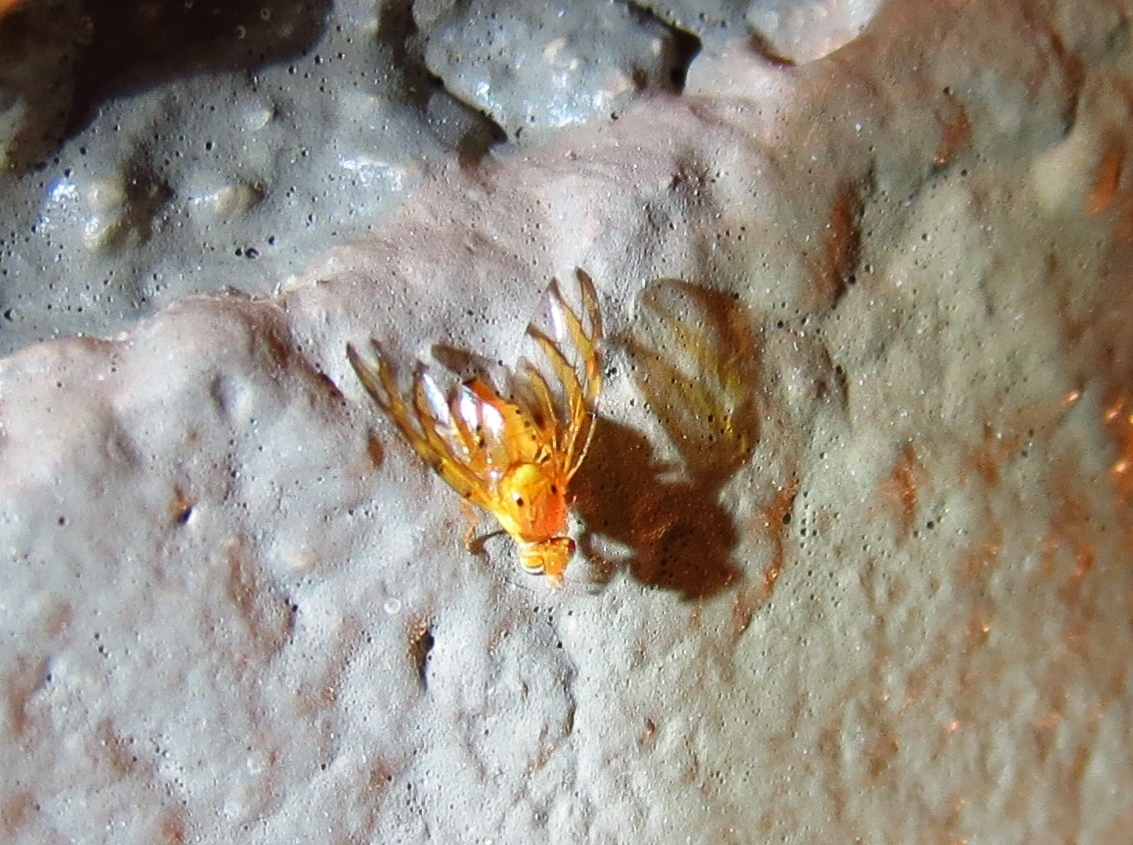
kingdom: Animalia
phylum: Arthropoda
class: Insecta
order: Diptera
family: Tephritidae
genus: Tomoplagia
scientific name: Tomoplagia obliqua
